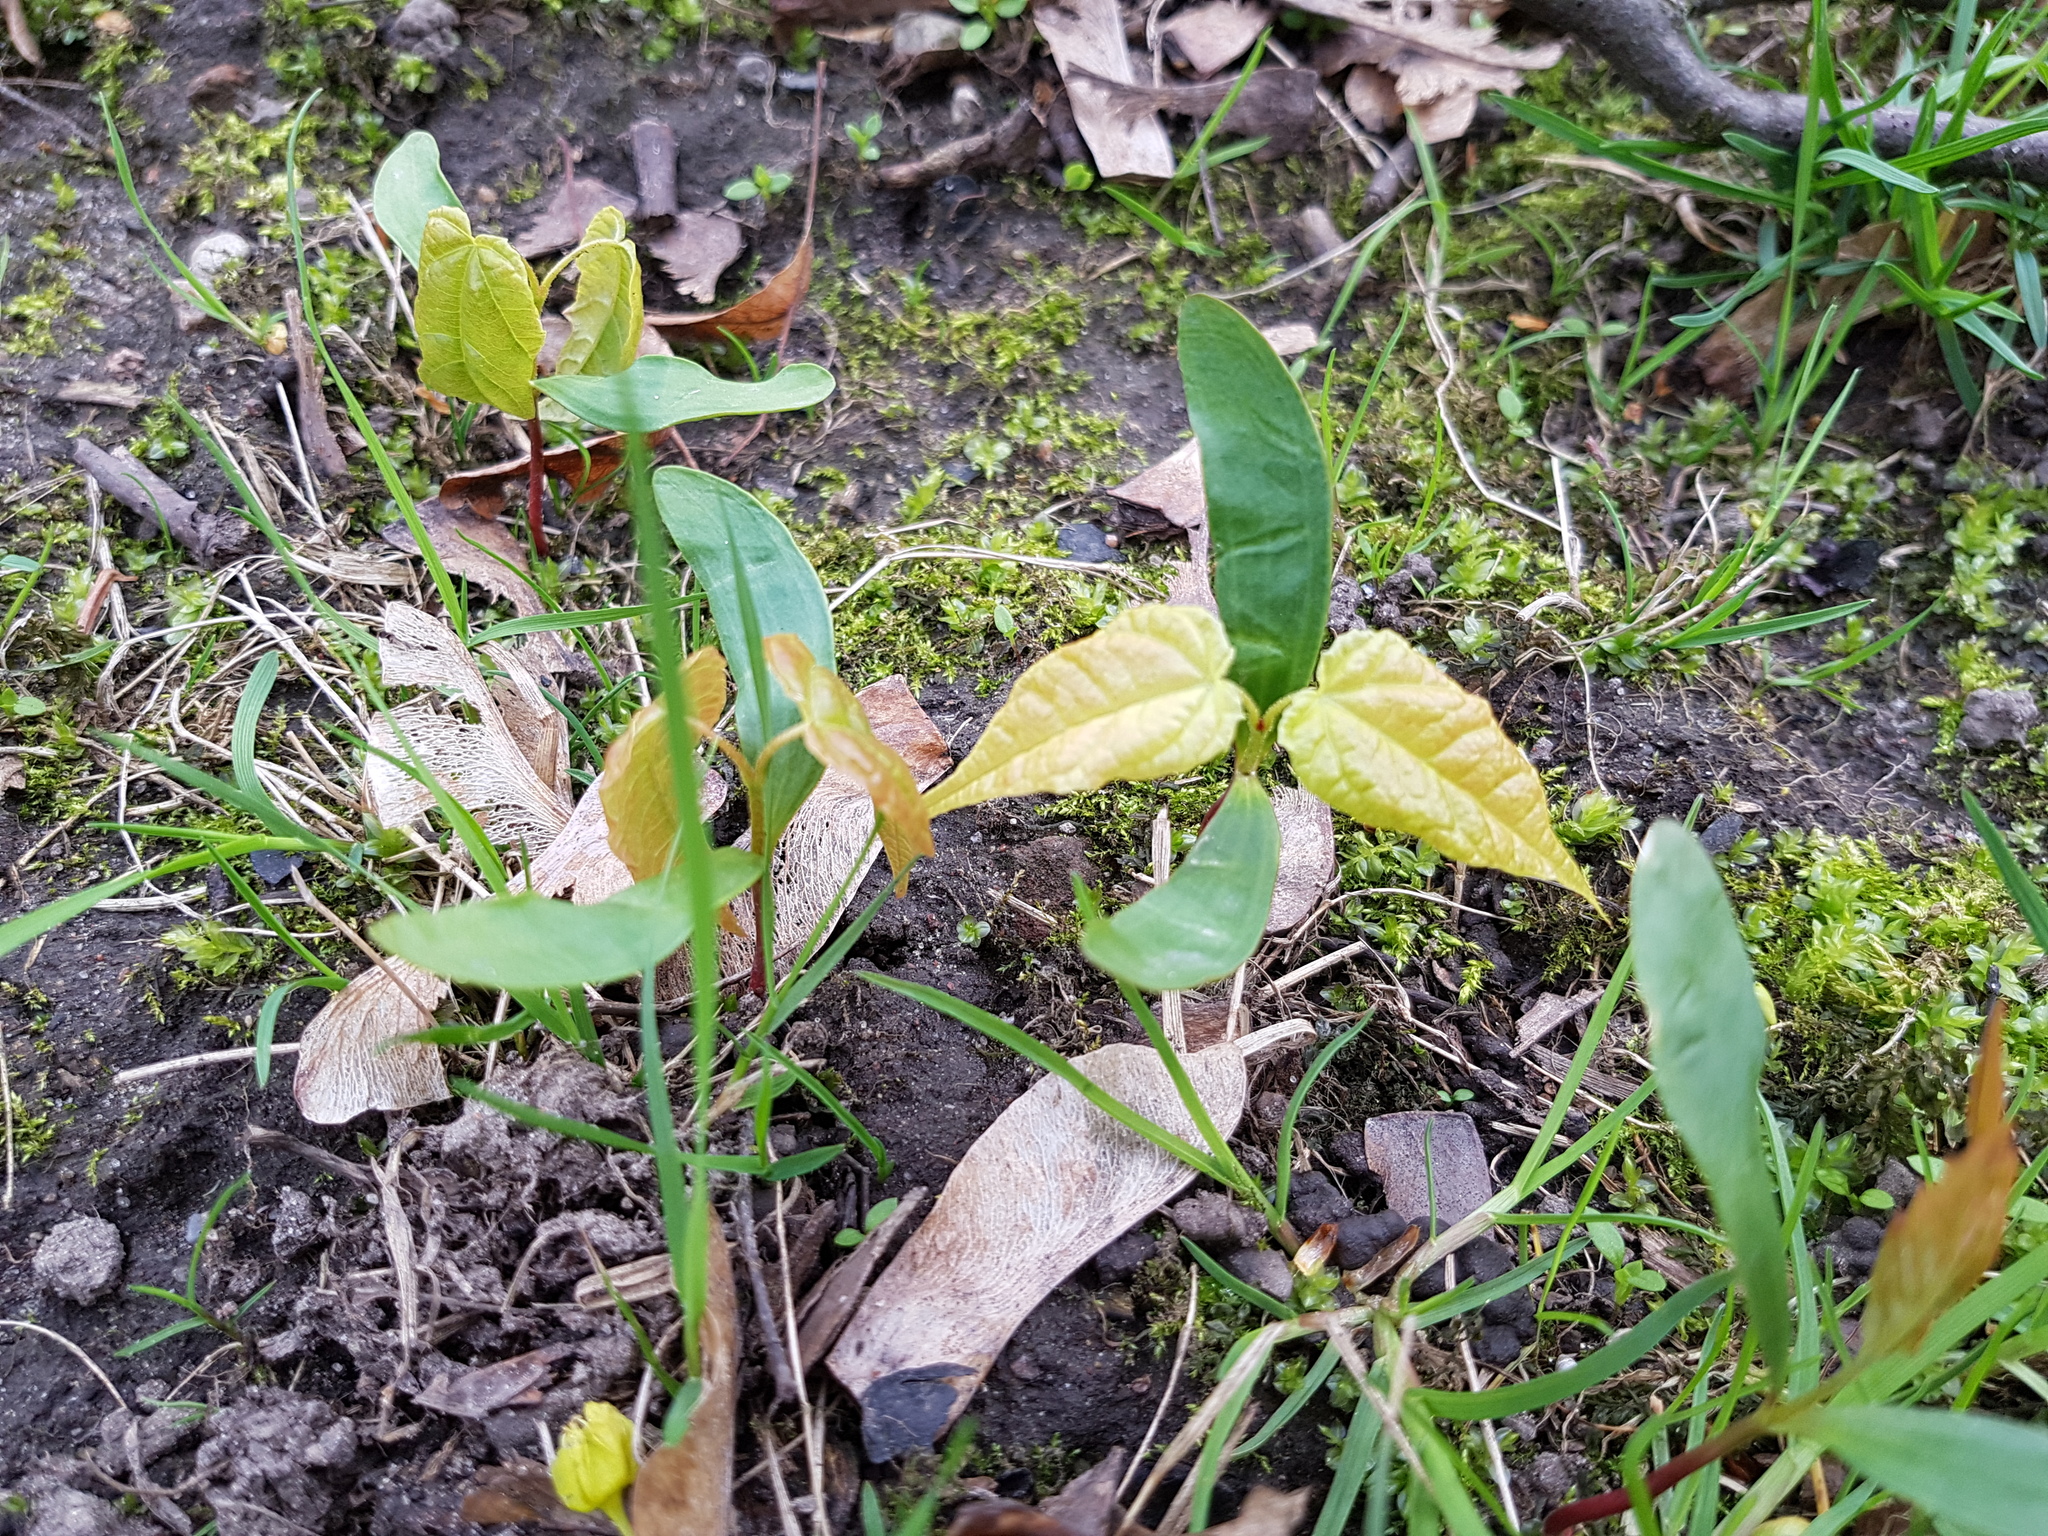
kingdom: Plantae
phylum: Tracheophyta
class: Magnoliopsida
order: Sapindales
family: Sapindaceae
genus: Acer
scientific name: Acer platanoides
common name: Norway maple
